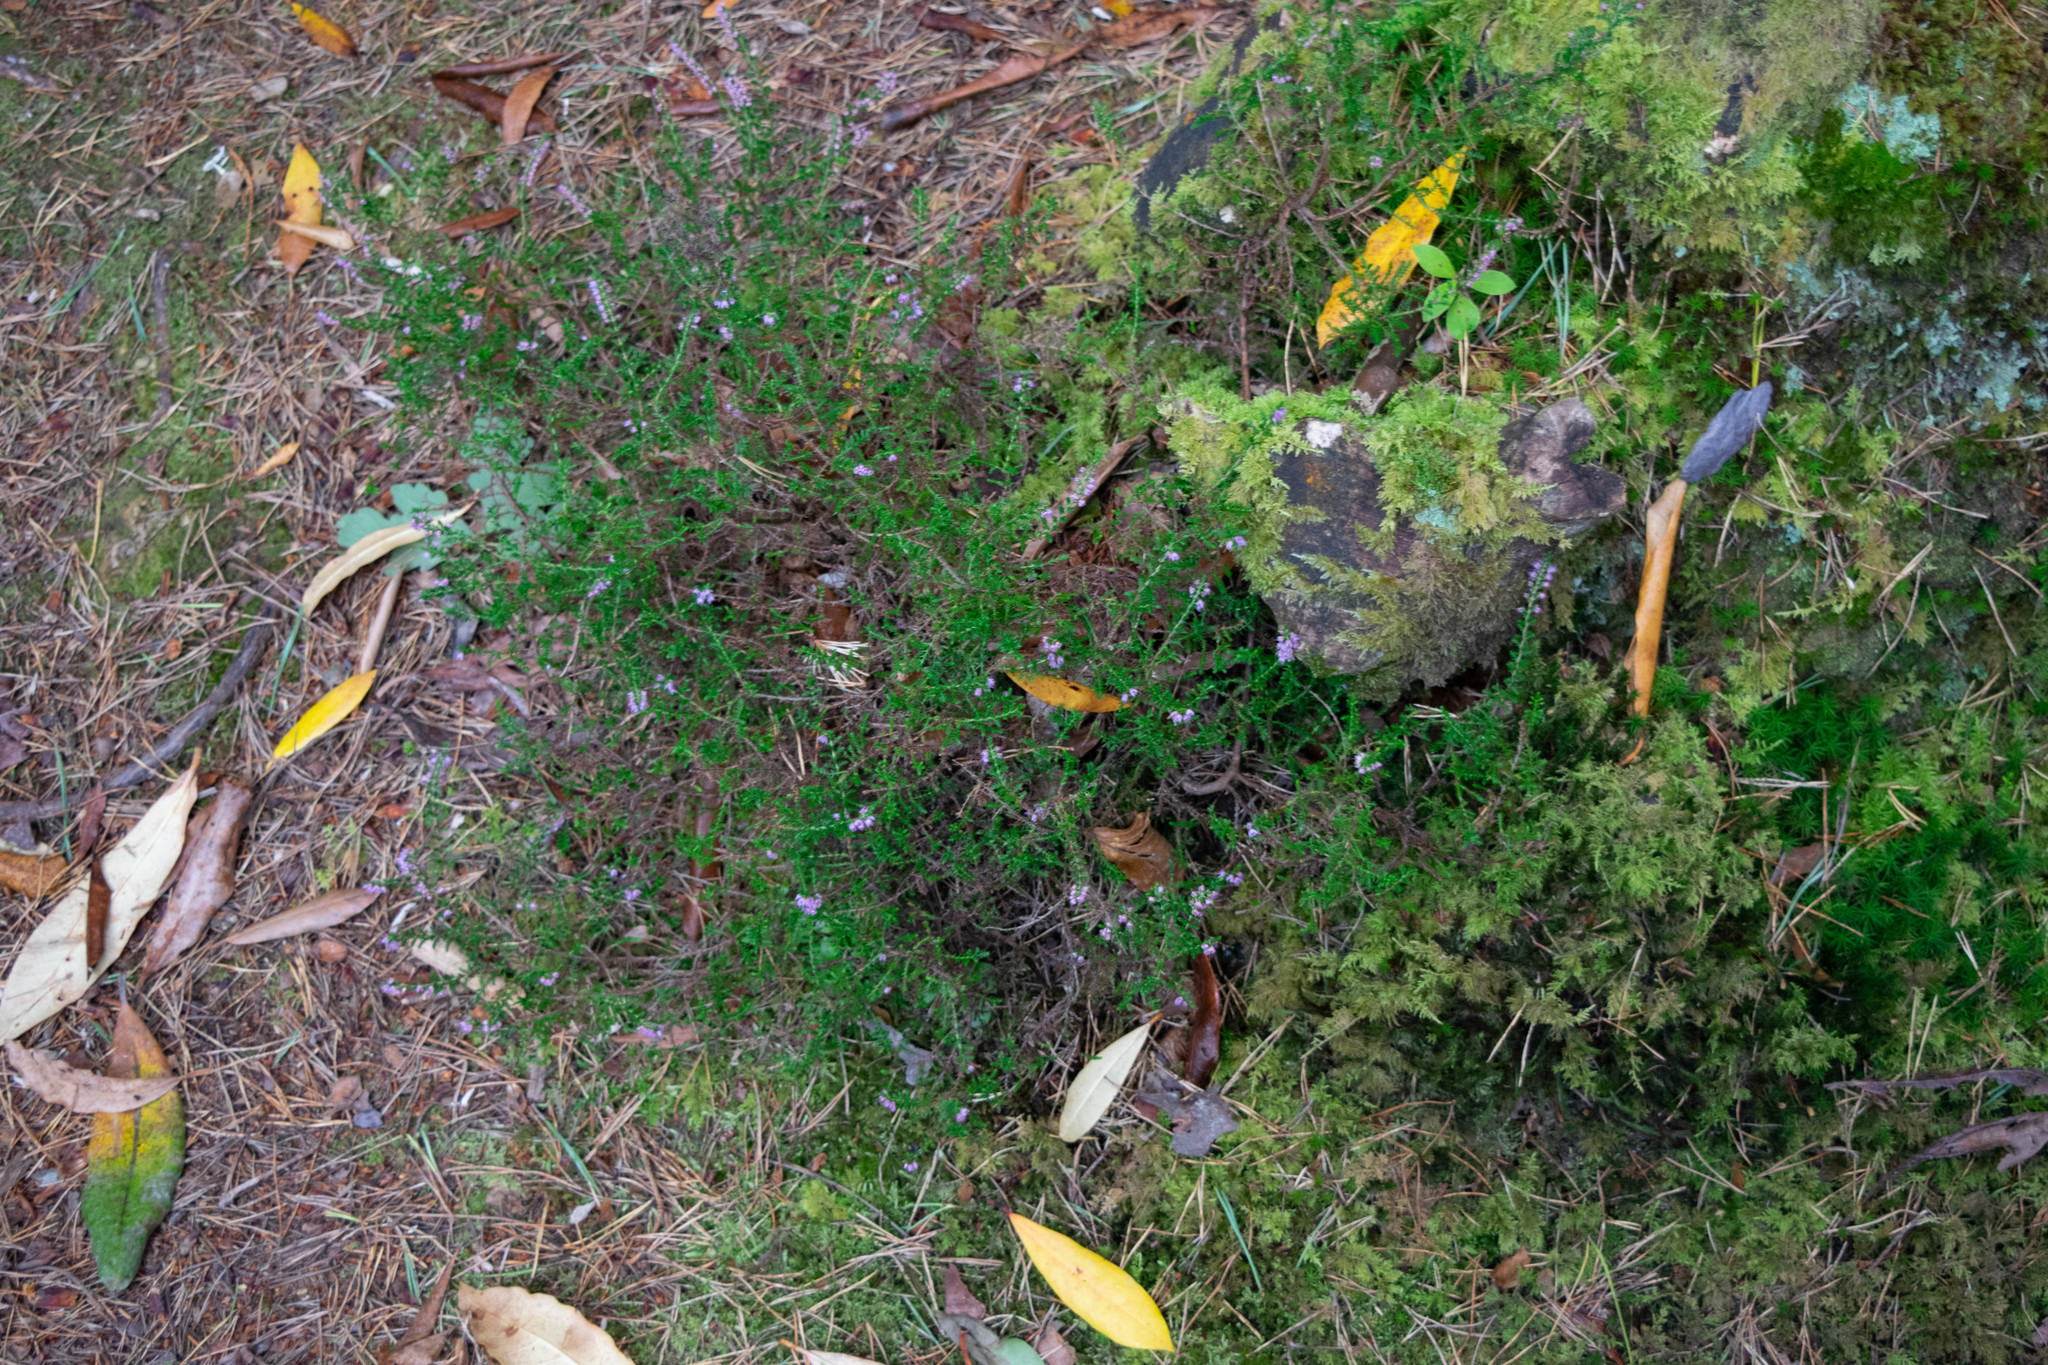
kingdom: Plantae
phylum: Tracheophyta
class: Magnoliopsida
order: Ericales
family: Ericaceae
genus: Calluna
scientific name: Calluna vulgaris
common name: Heather
